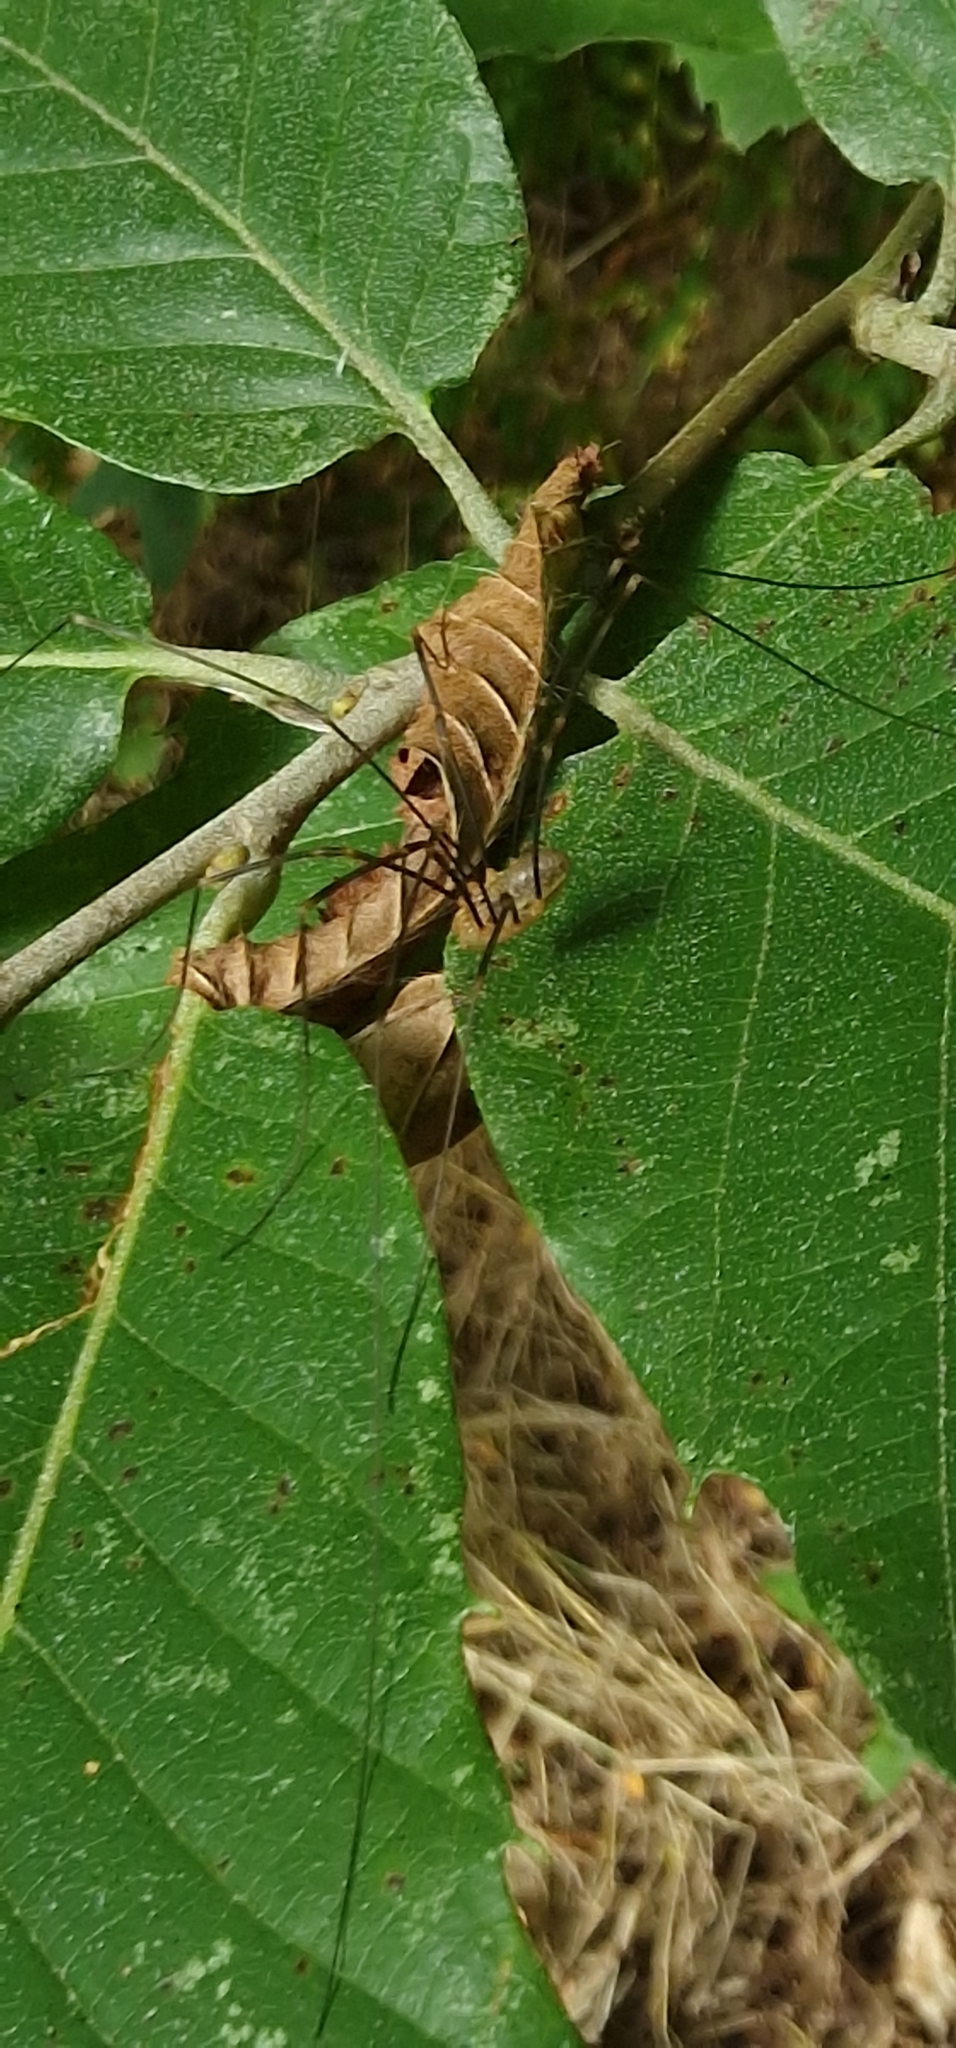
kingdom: Animalia
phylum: Arthropoda
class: Arachnida
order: Opiliones
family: Phalangiidae
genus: Opilio
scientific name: Opilio canestrinii
